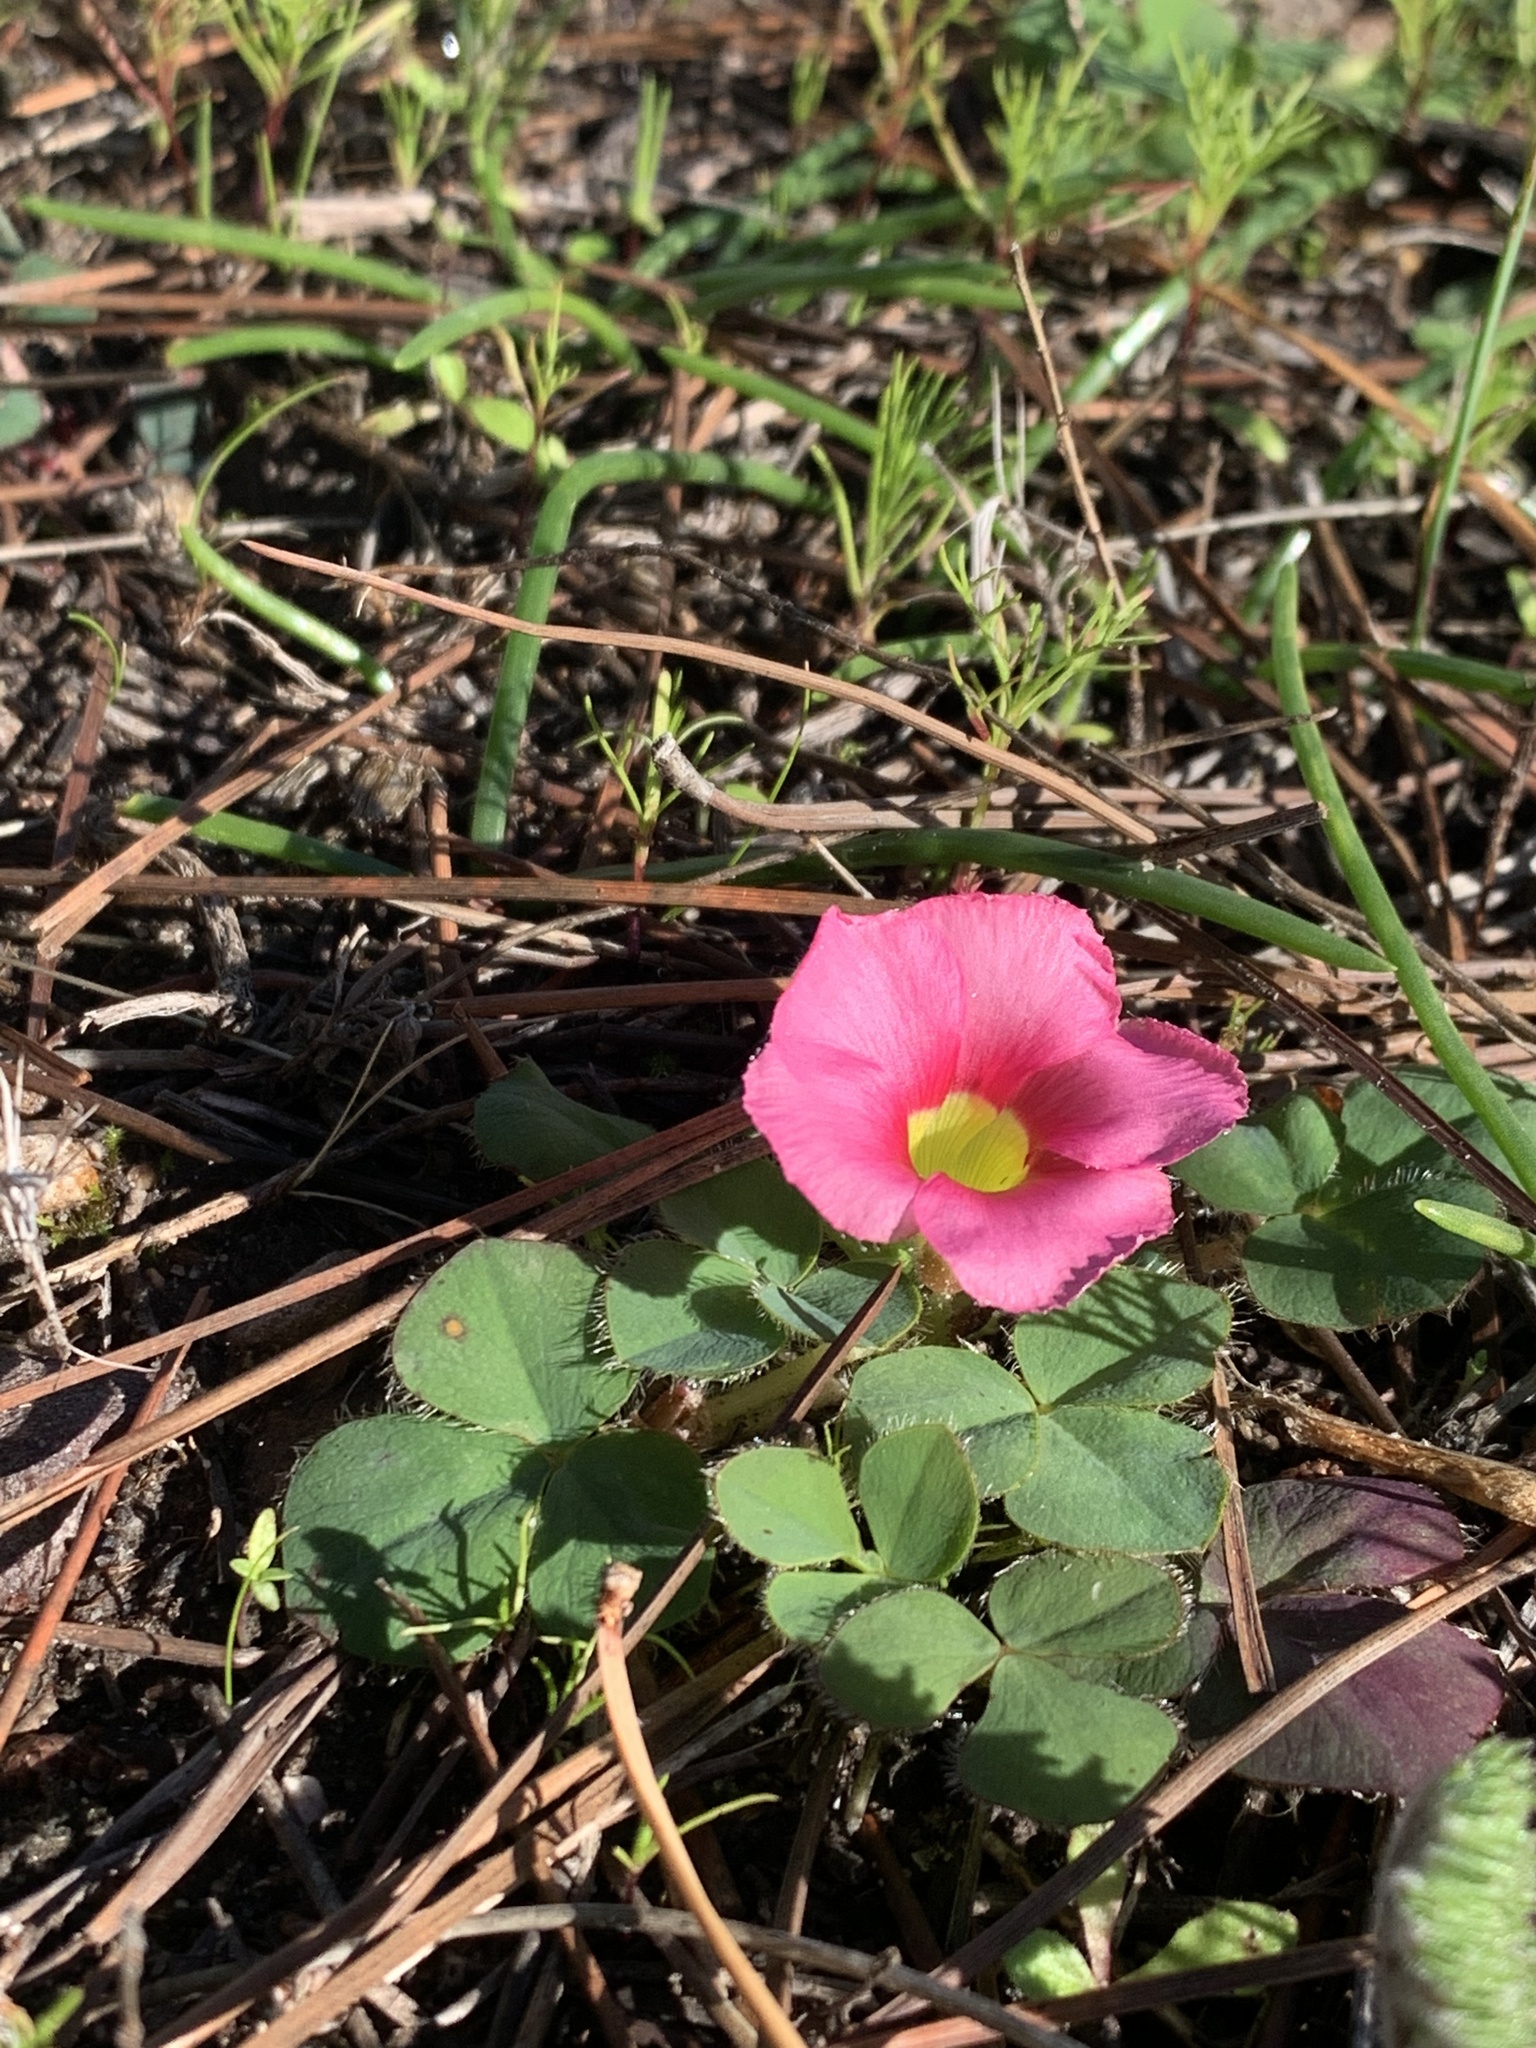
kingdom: Plantae
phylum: Tracheophyta
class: Magnoliopsida
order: Oxalidales
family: Oxalidaceae
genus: Oxalis
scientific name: Oxalis purpurea
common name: Purple woodsorrel
